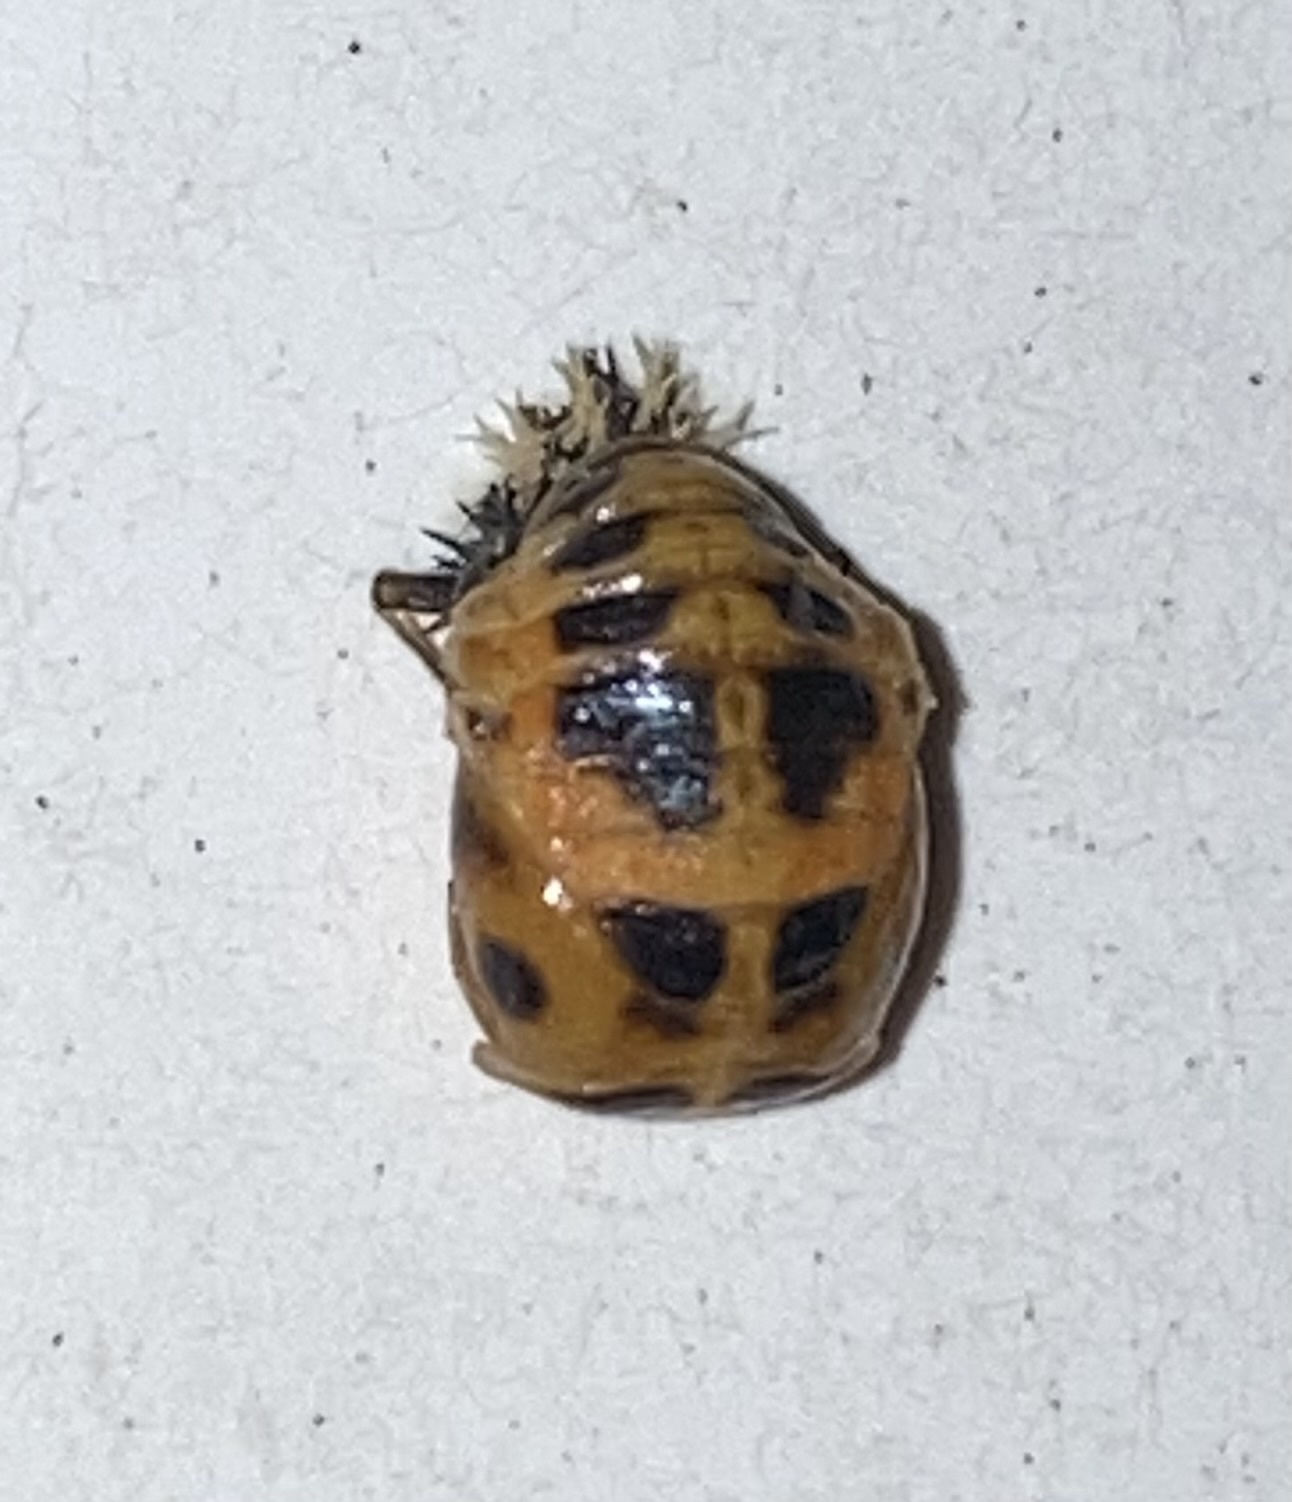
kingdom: Animalia
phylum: Arthropoda
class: Insecta
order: Coleoptera
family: Coccinellidae
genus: Harmonia
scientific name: Harmonia axyridis
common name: Harlequin ladybird
